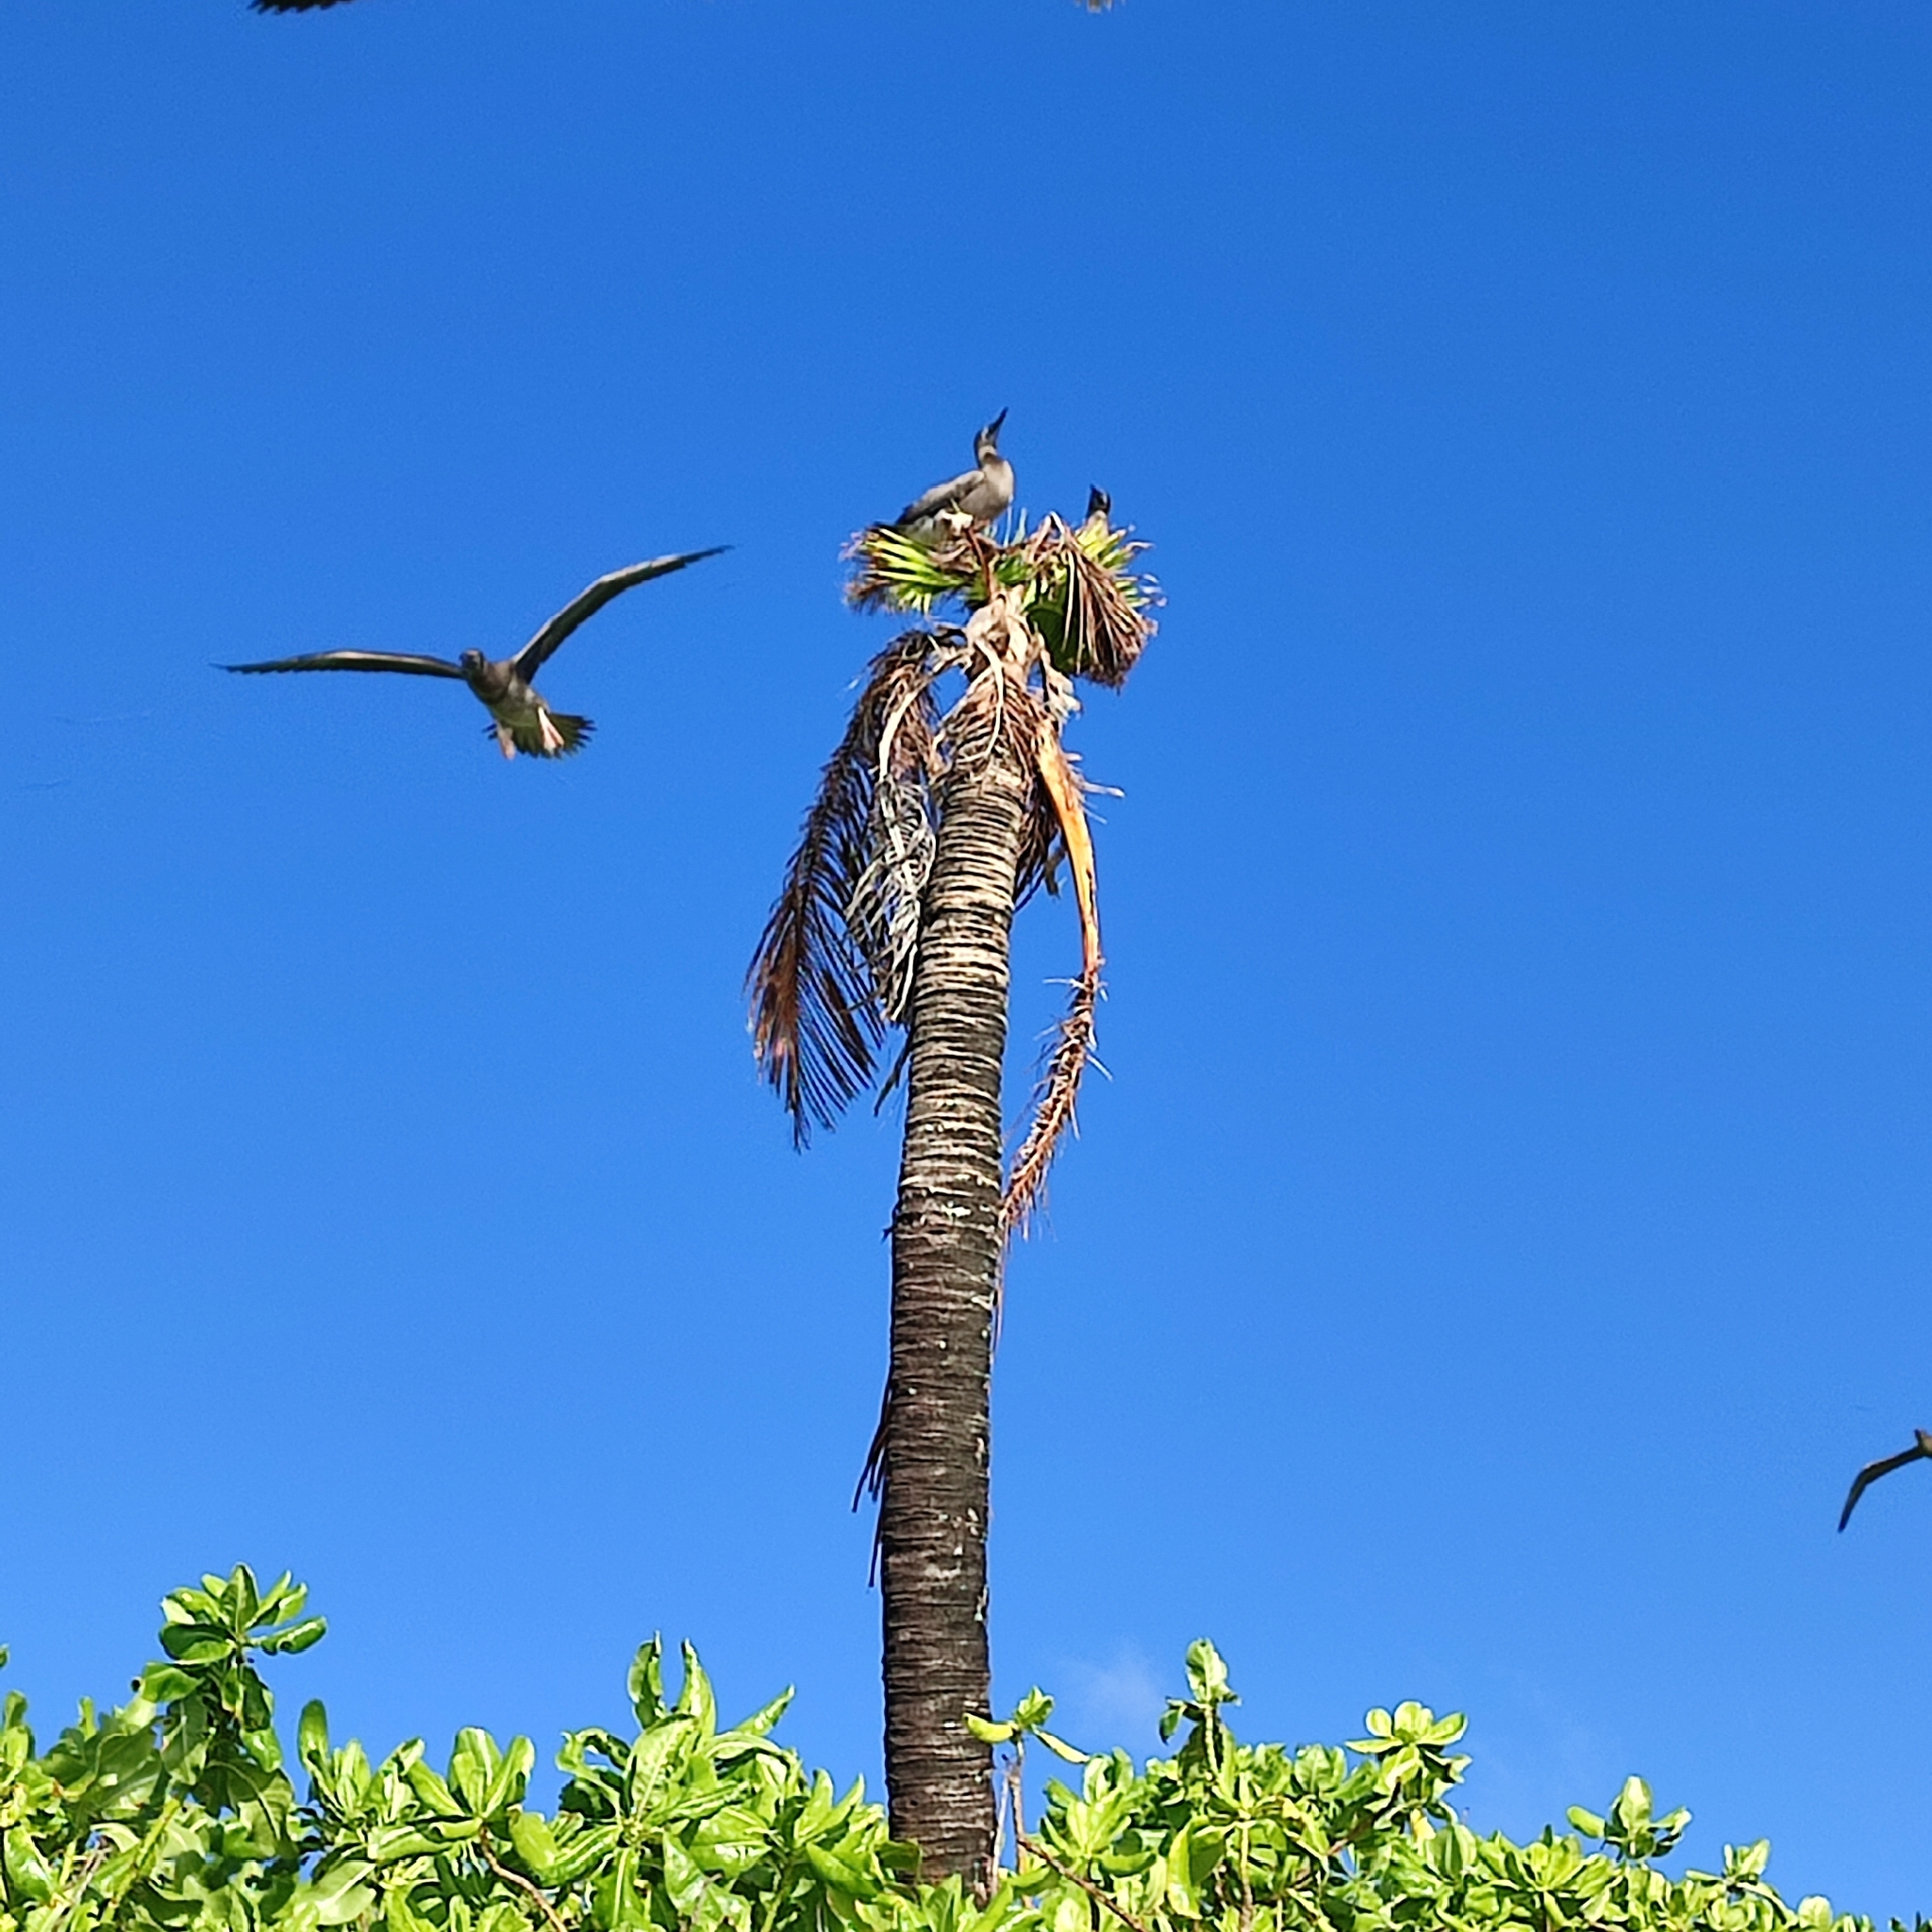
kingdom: Animalia
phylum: Chordata
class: Aves
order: Suliformes
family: Sulidae
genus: Sula
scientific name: Sula leucogaster
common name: Brown booby
